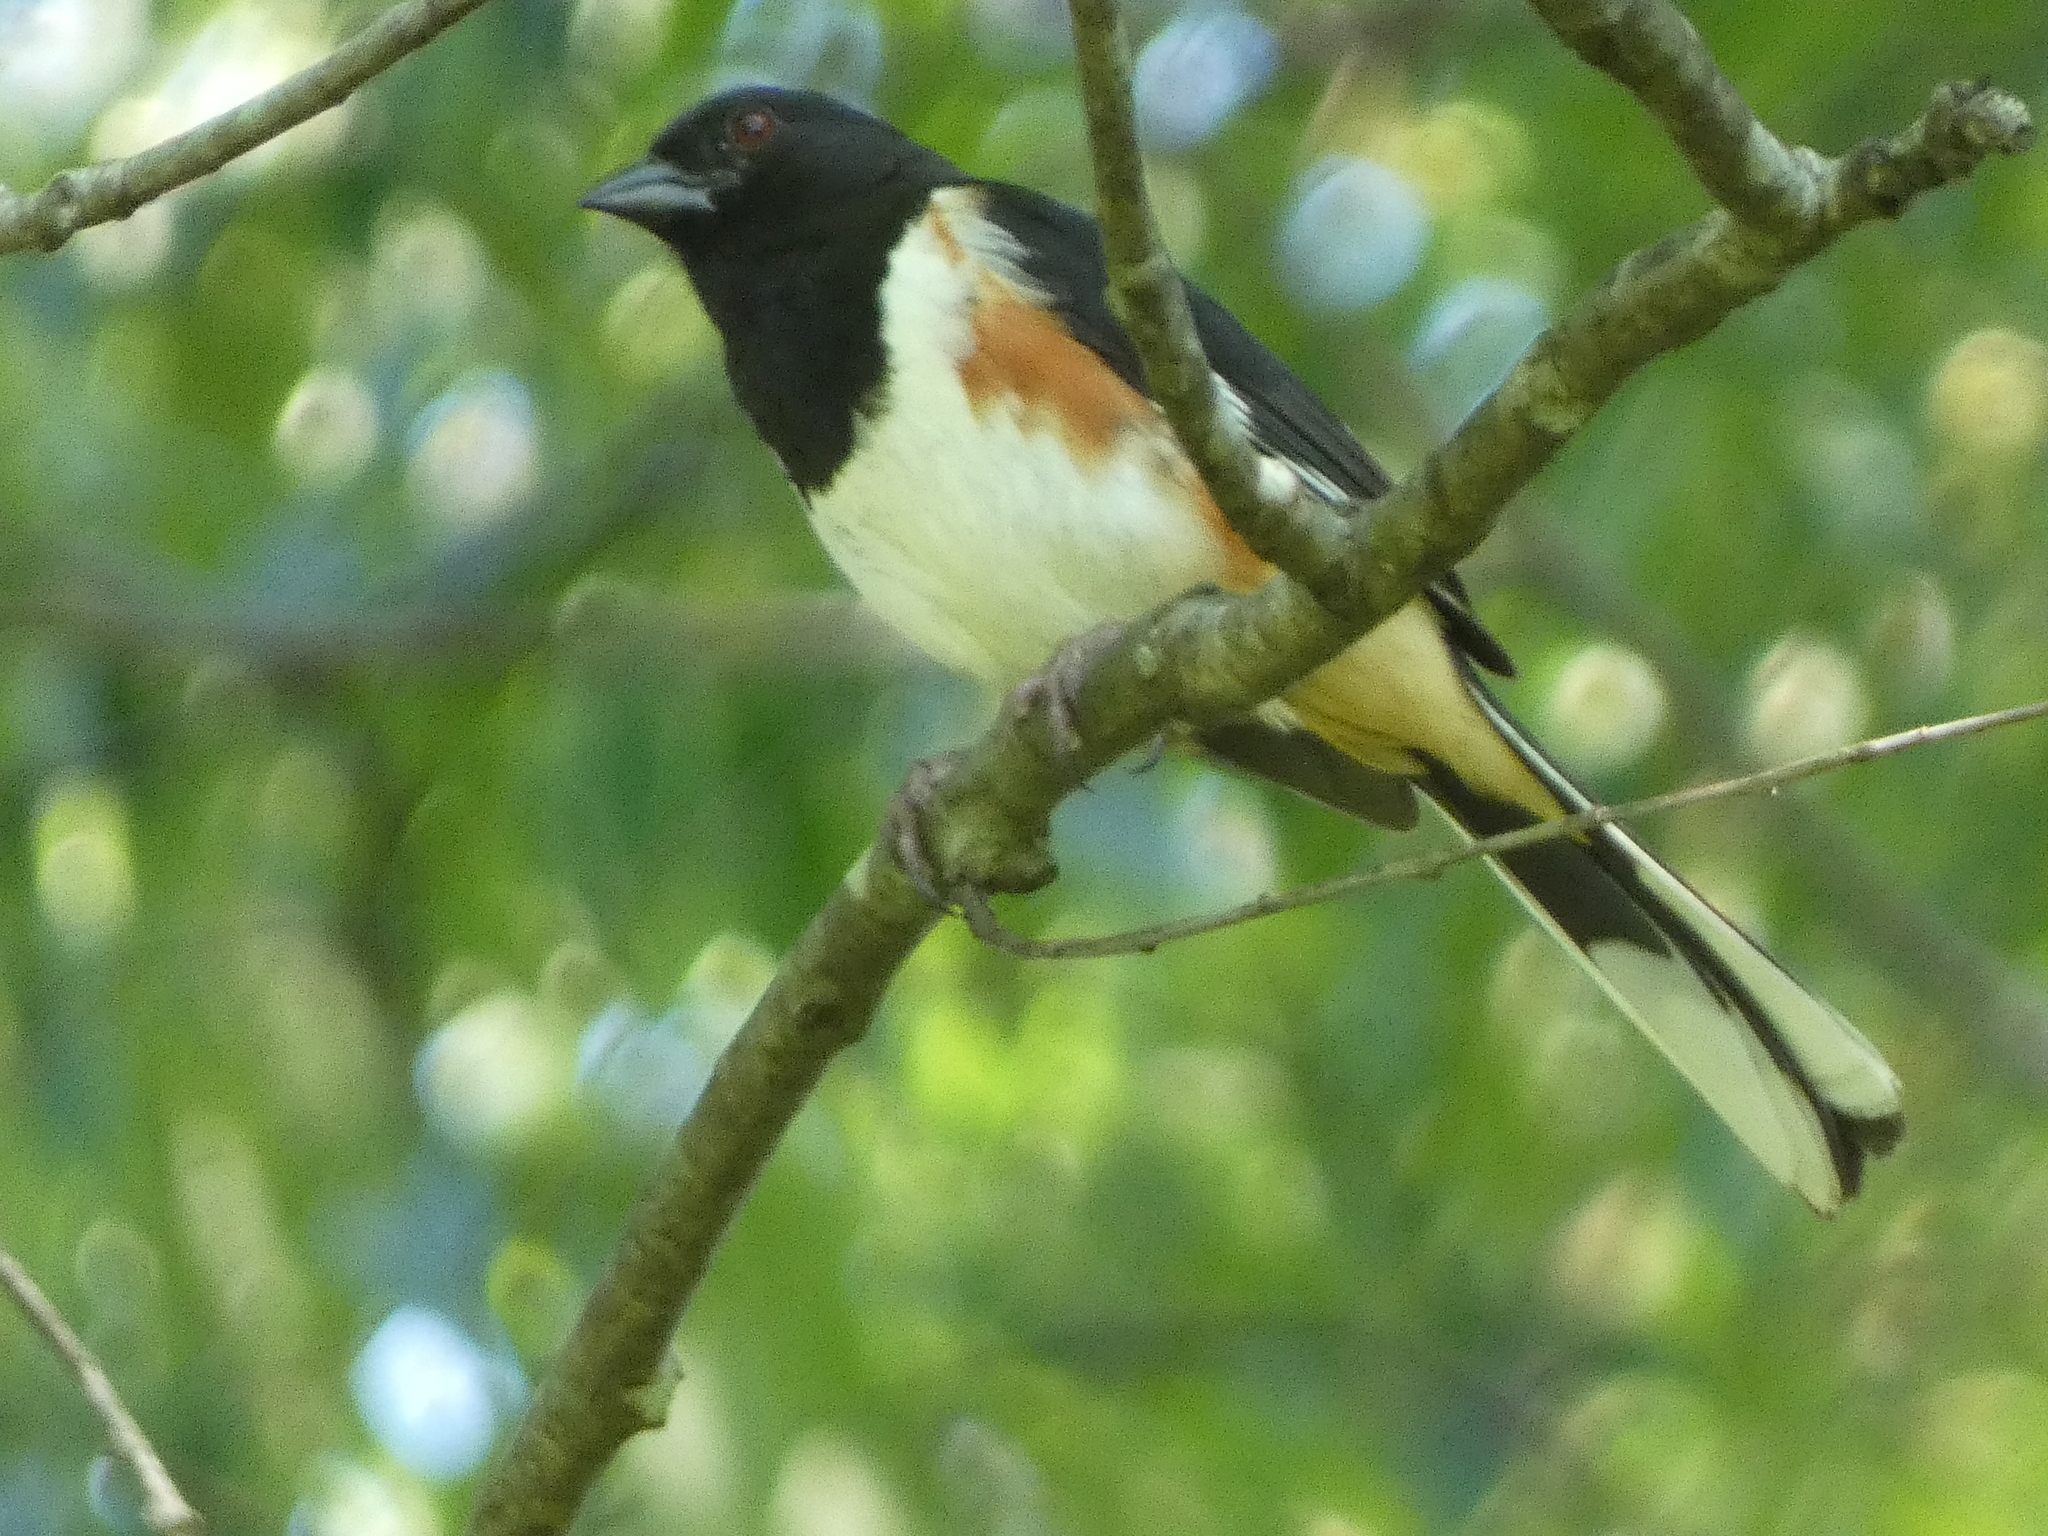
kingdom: Animalia
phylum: Chordata
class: Aves
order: Passeriformes
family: Passerellidae
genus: Pipilo
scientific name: Pipilo erythrophthalmus
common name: Eastern towhee
